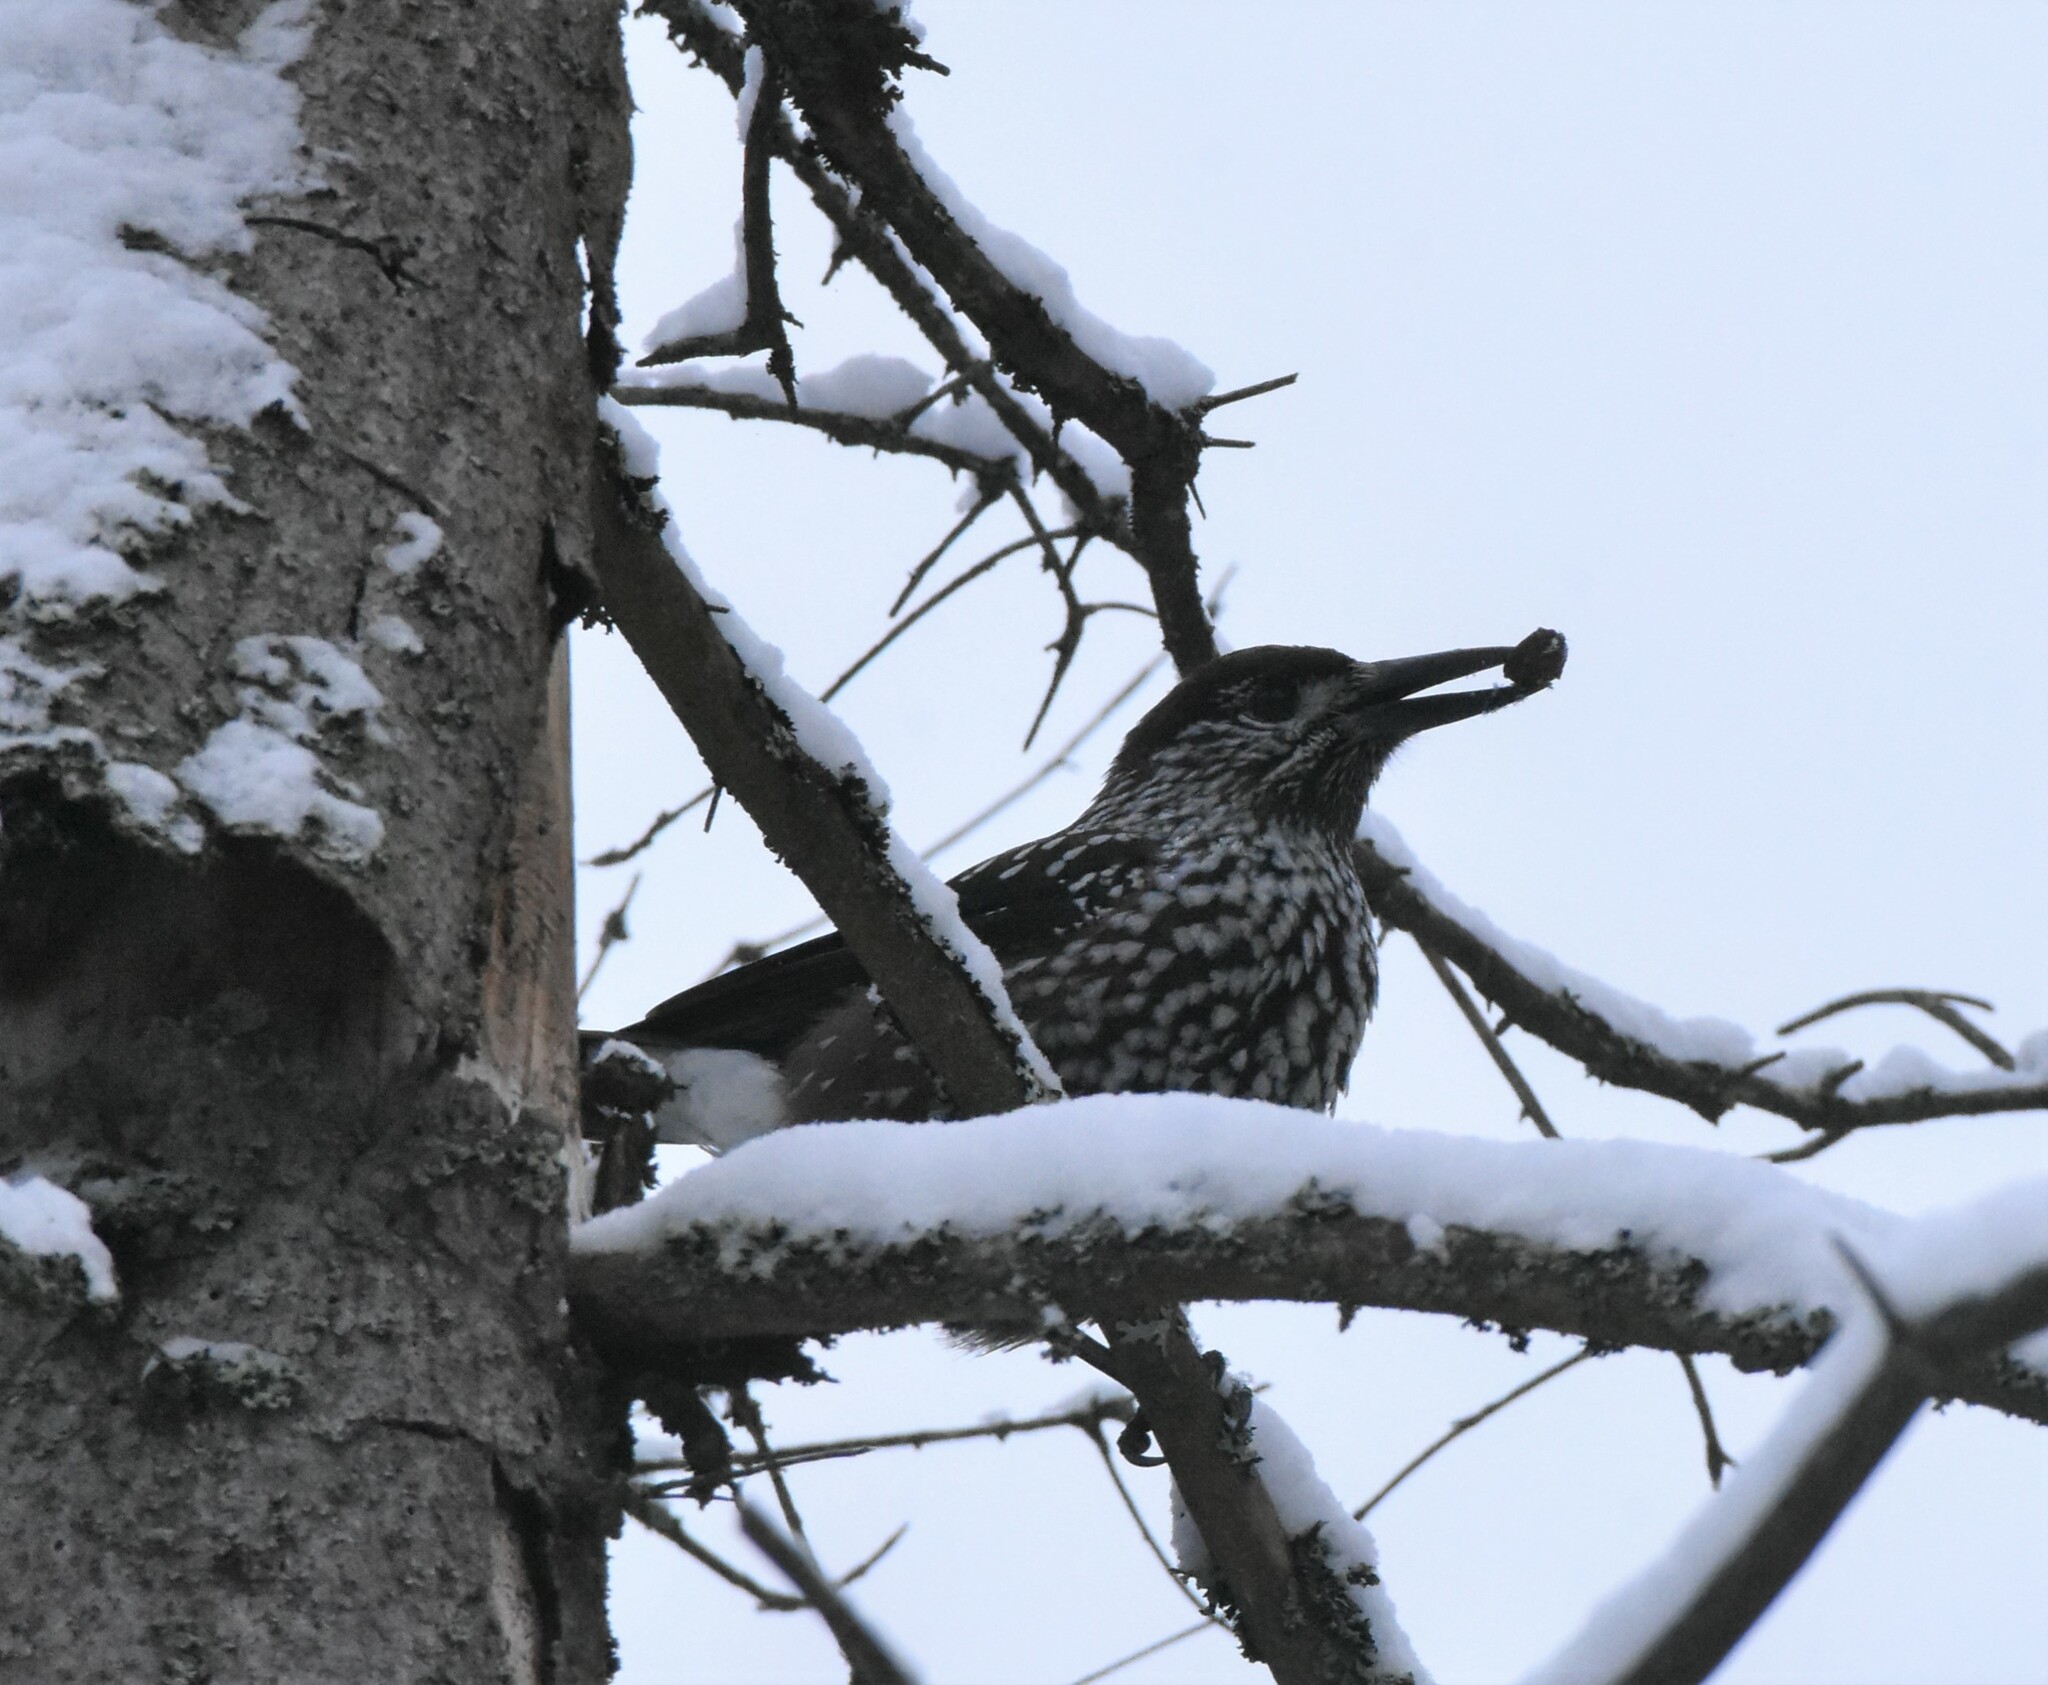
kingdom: Animalia
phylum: Chordata
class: Aves
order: Passeriformes
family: Corvidae
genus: Nucifraga
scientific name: Nucifraga caryocatactes
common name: Spotted nutcracker
